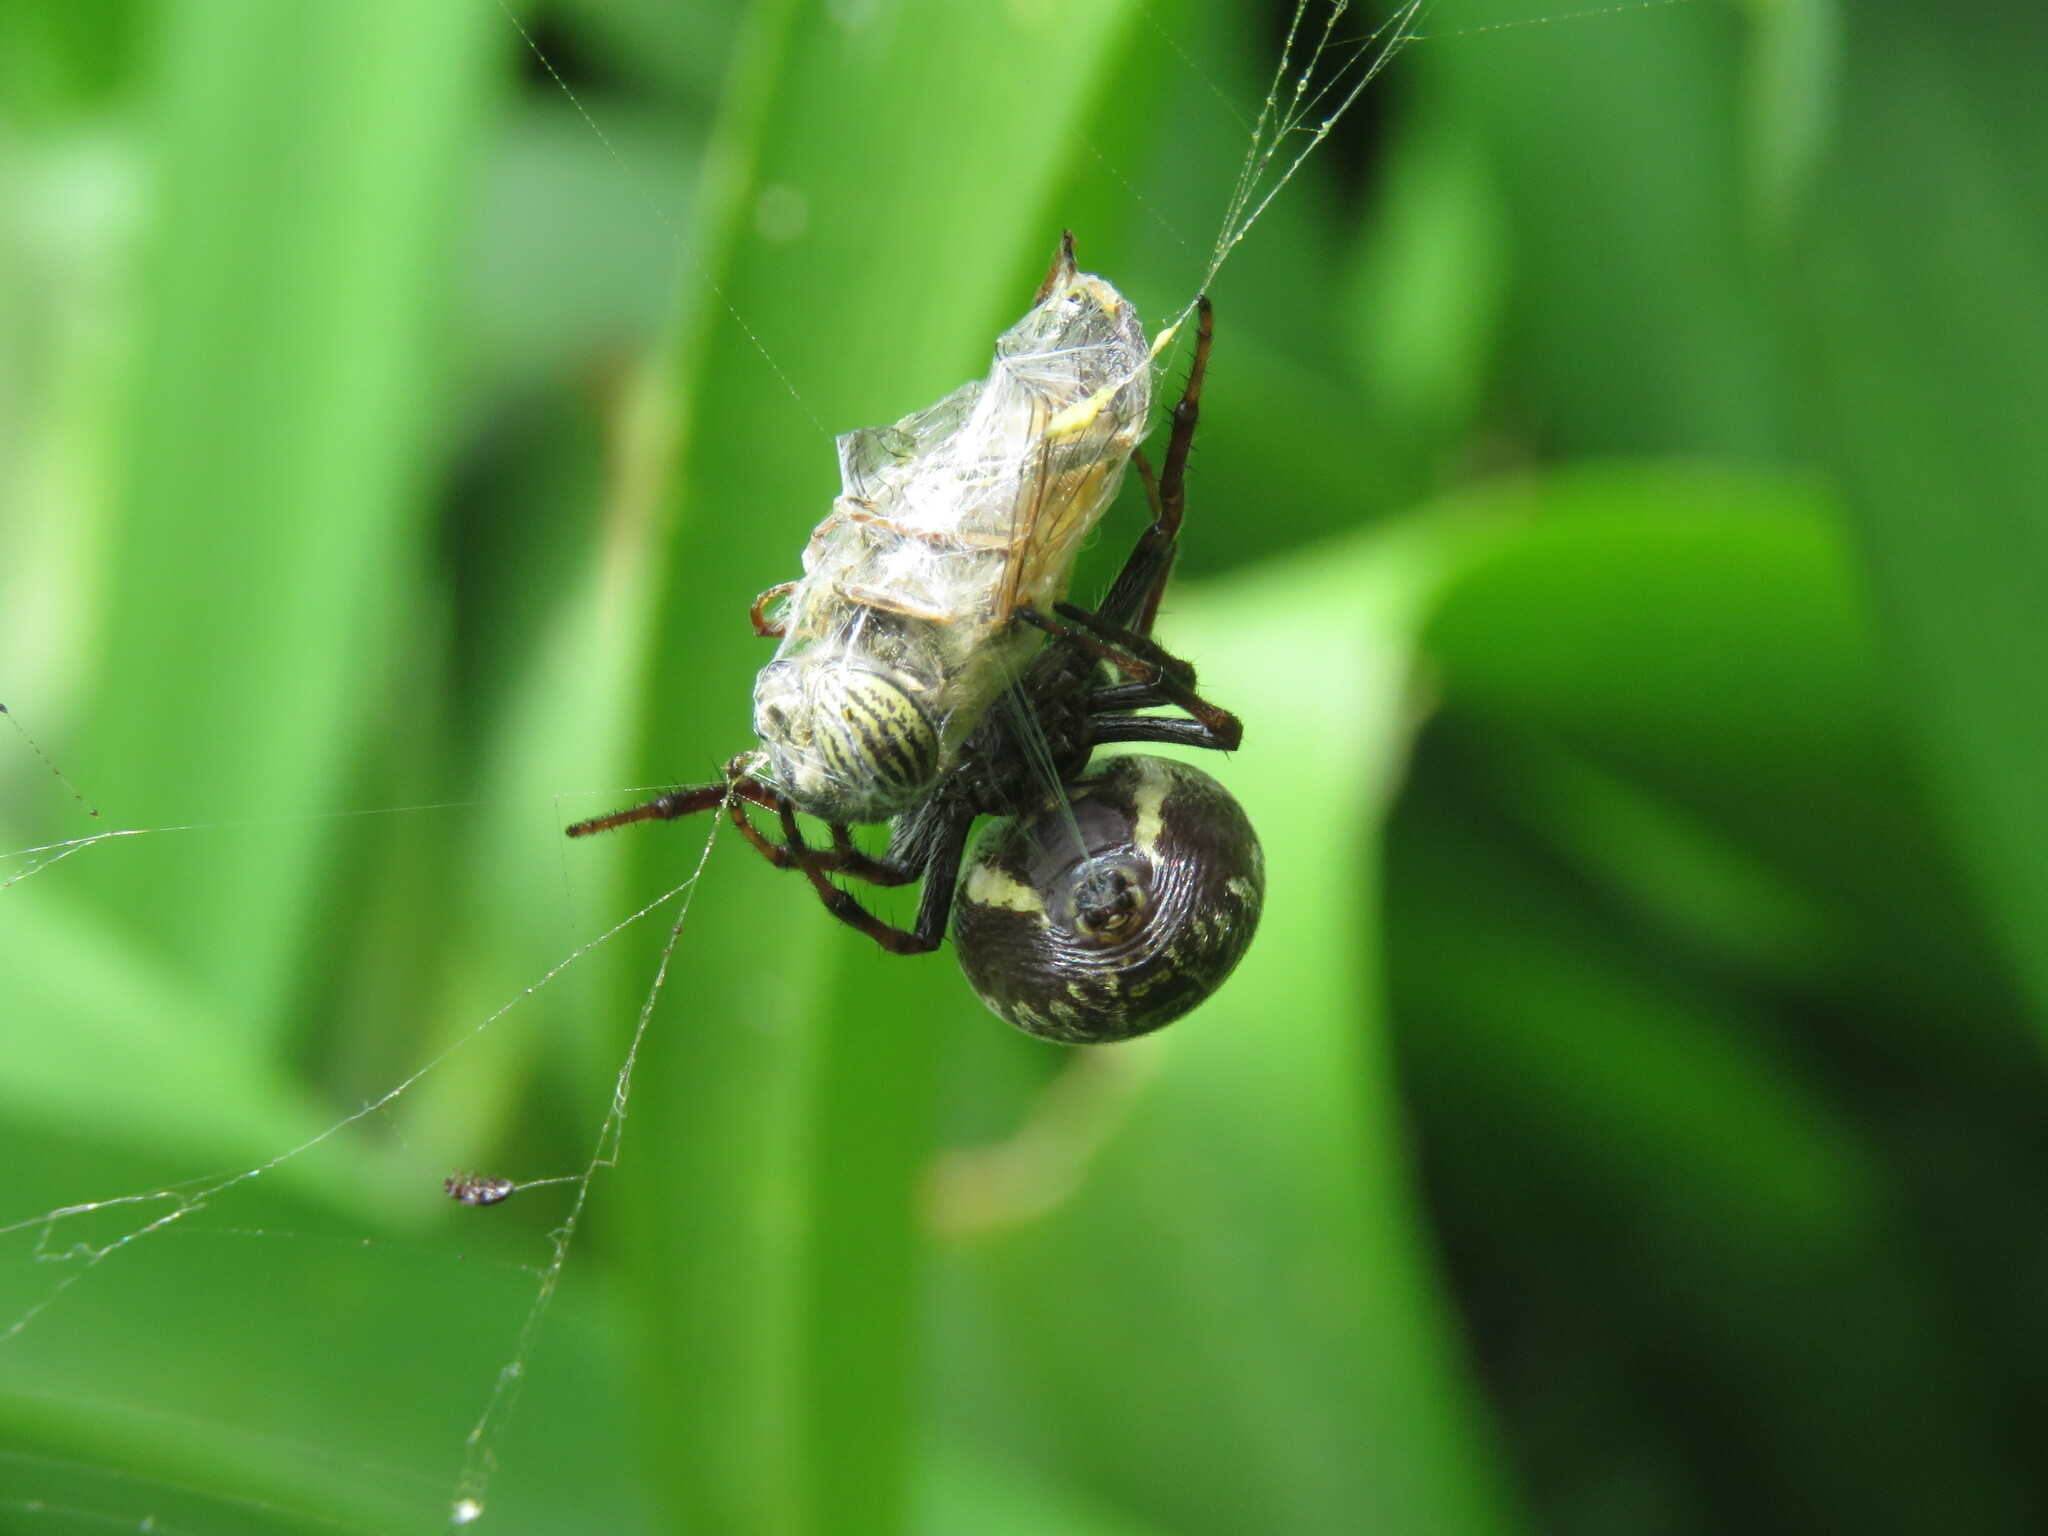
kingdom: Animalia
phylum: Arthropoda
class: Insecta
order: Diptera
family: Syrphidae
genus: Eristalinus
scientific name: Eristalinus taeniops
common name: Syrphid fly
